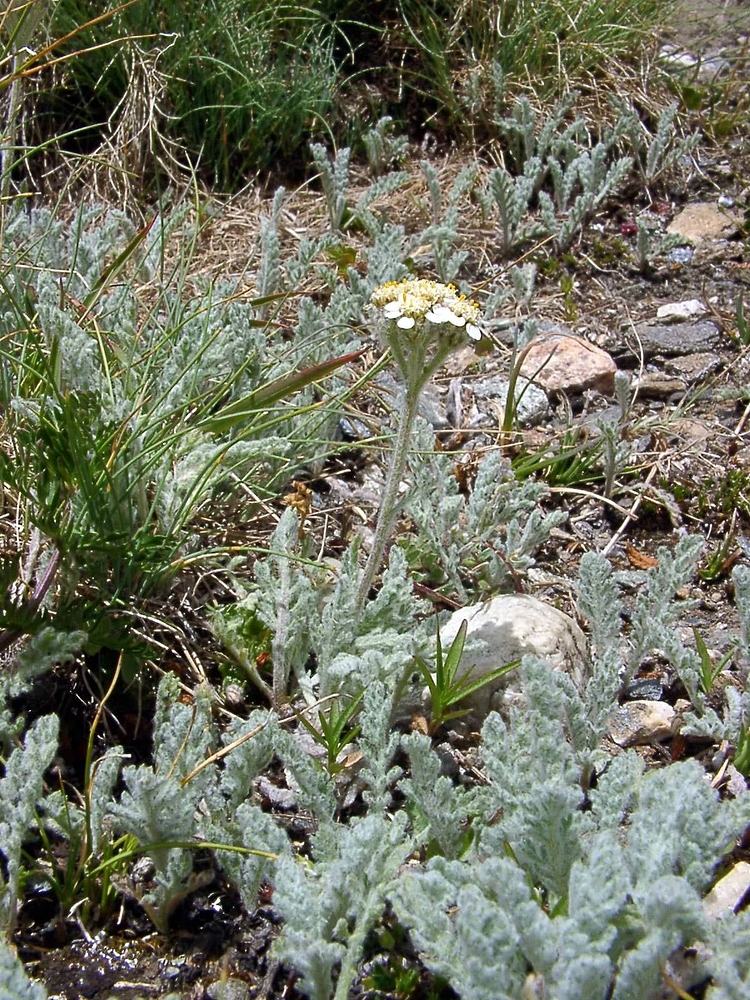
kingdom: Plantae
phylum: Tracheophyta
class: Magnoliopsida
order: Asterales
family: Asteraceae
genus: Achillea
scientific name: Achillea nana
